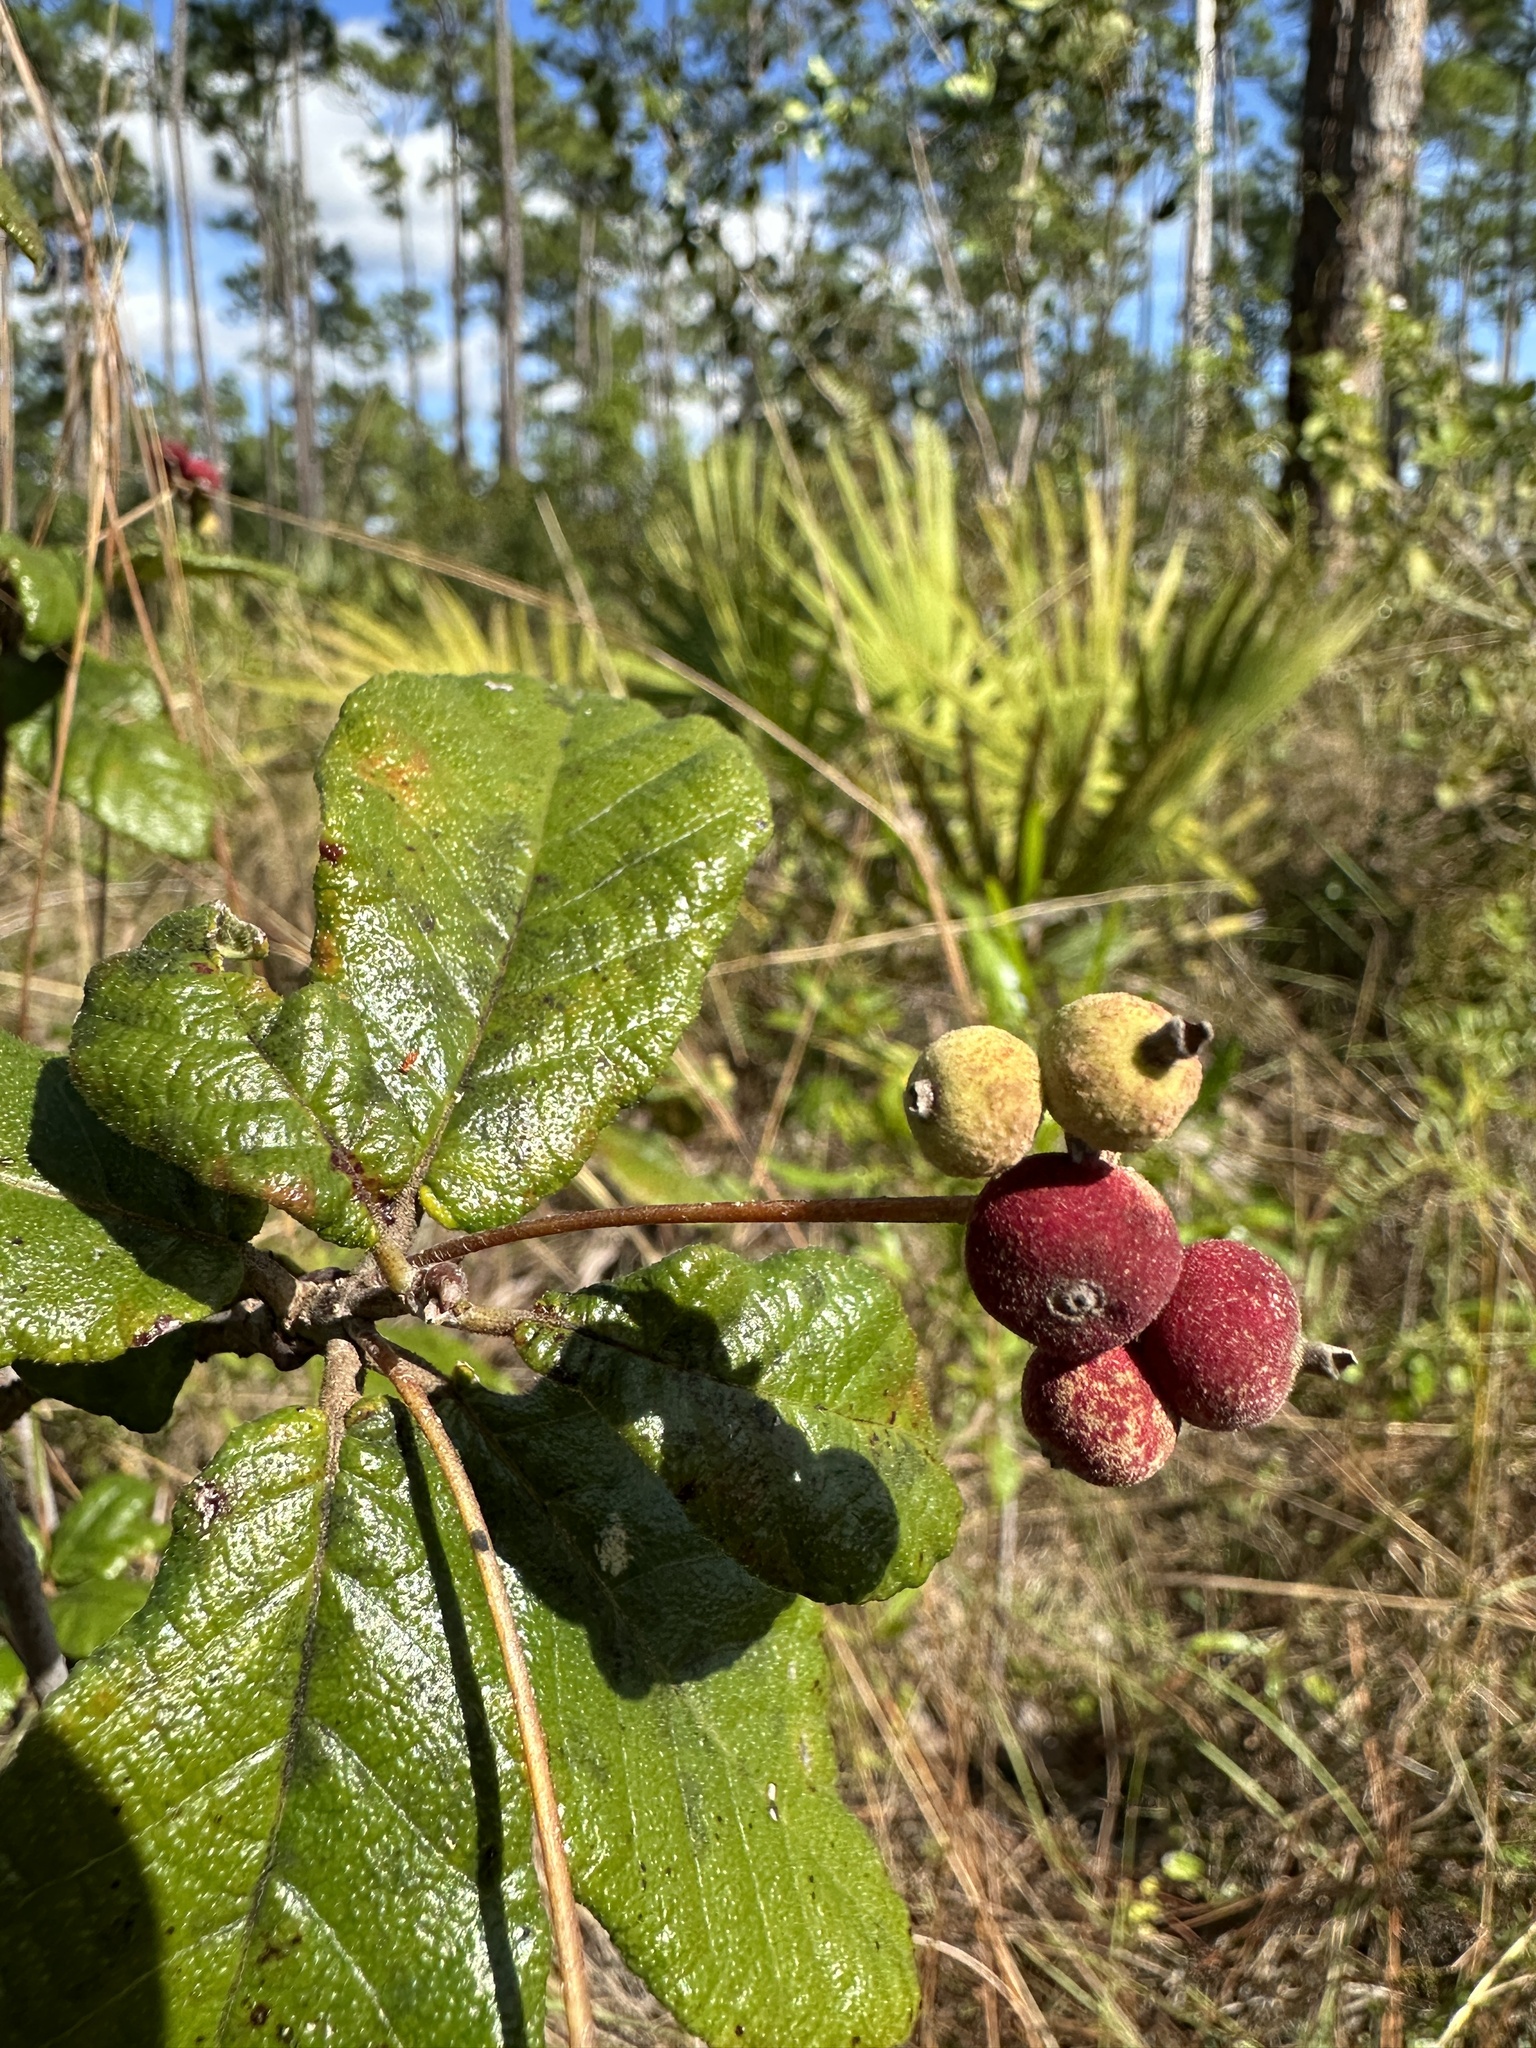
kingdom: Plantae
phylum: Tracheophyta
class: Magnoliopsida
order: Gentianales
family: Rubiaceae
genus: Guettarda
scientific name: Guettarda scabra
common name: Pigeon bay
